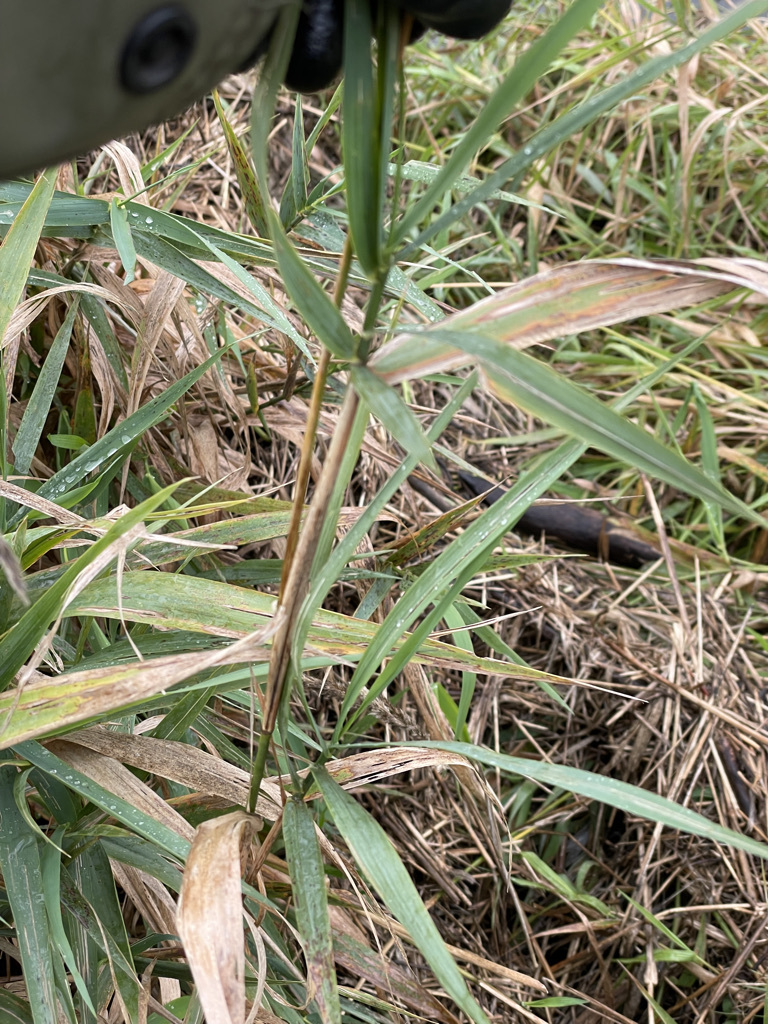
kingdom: Plantae
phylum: Tracheophyta
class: Liliopsida
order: Poales
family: Poaceae
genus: Phalaris
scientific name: Phalaris arundinacea
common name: Reed canary-grass
